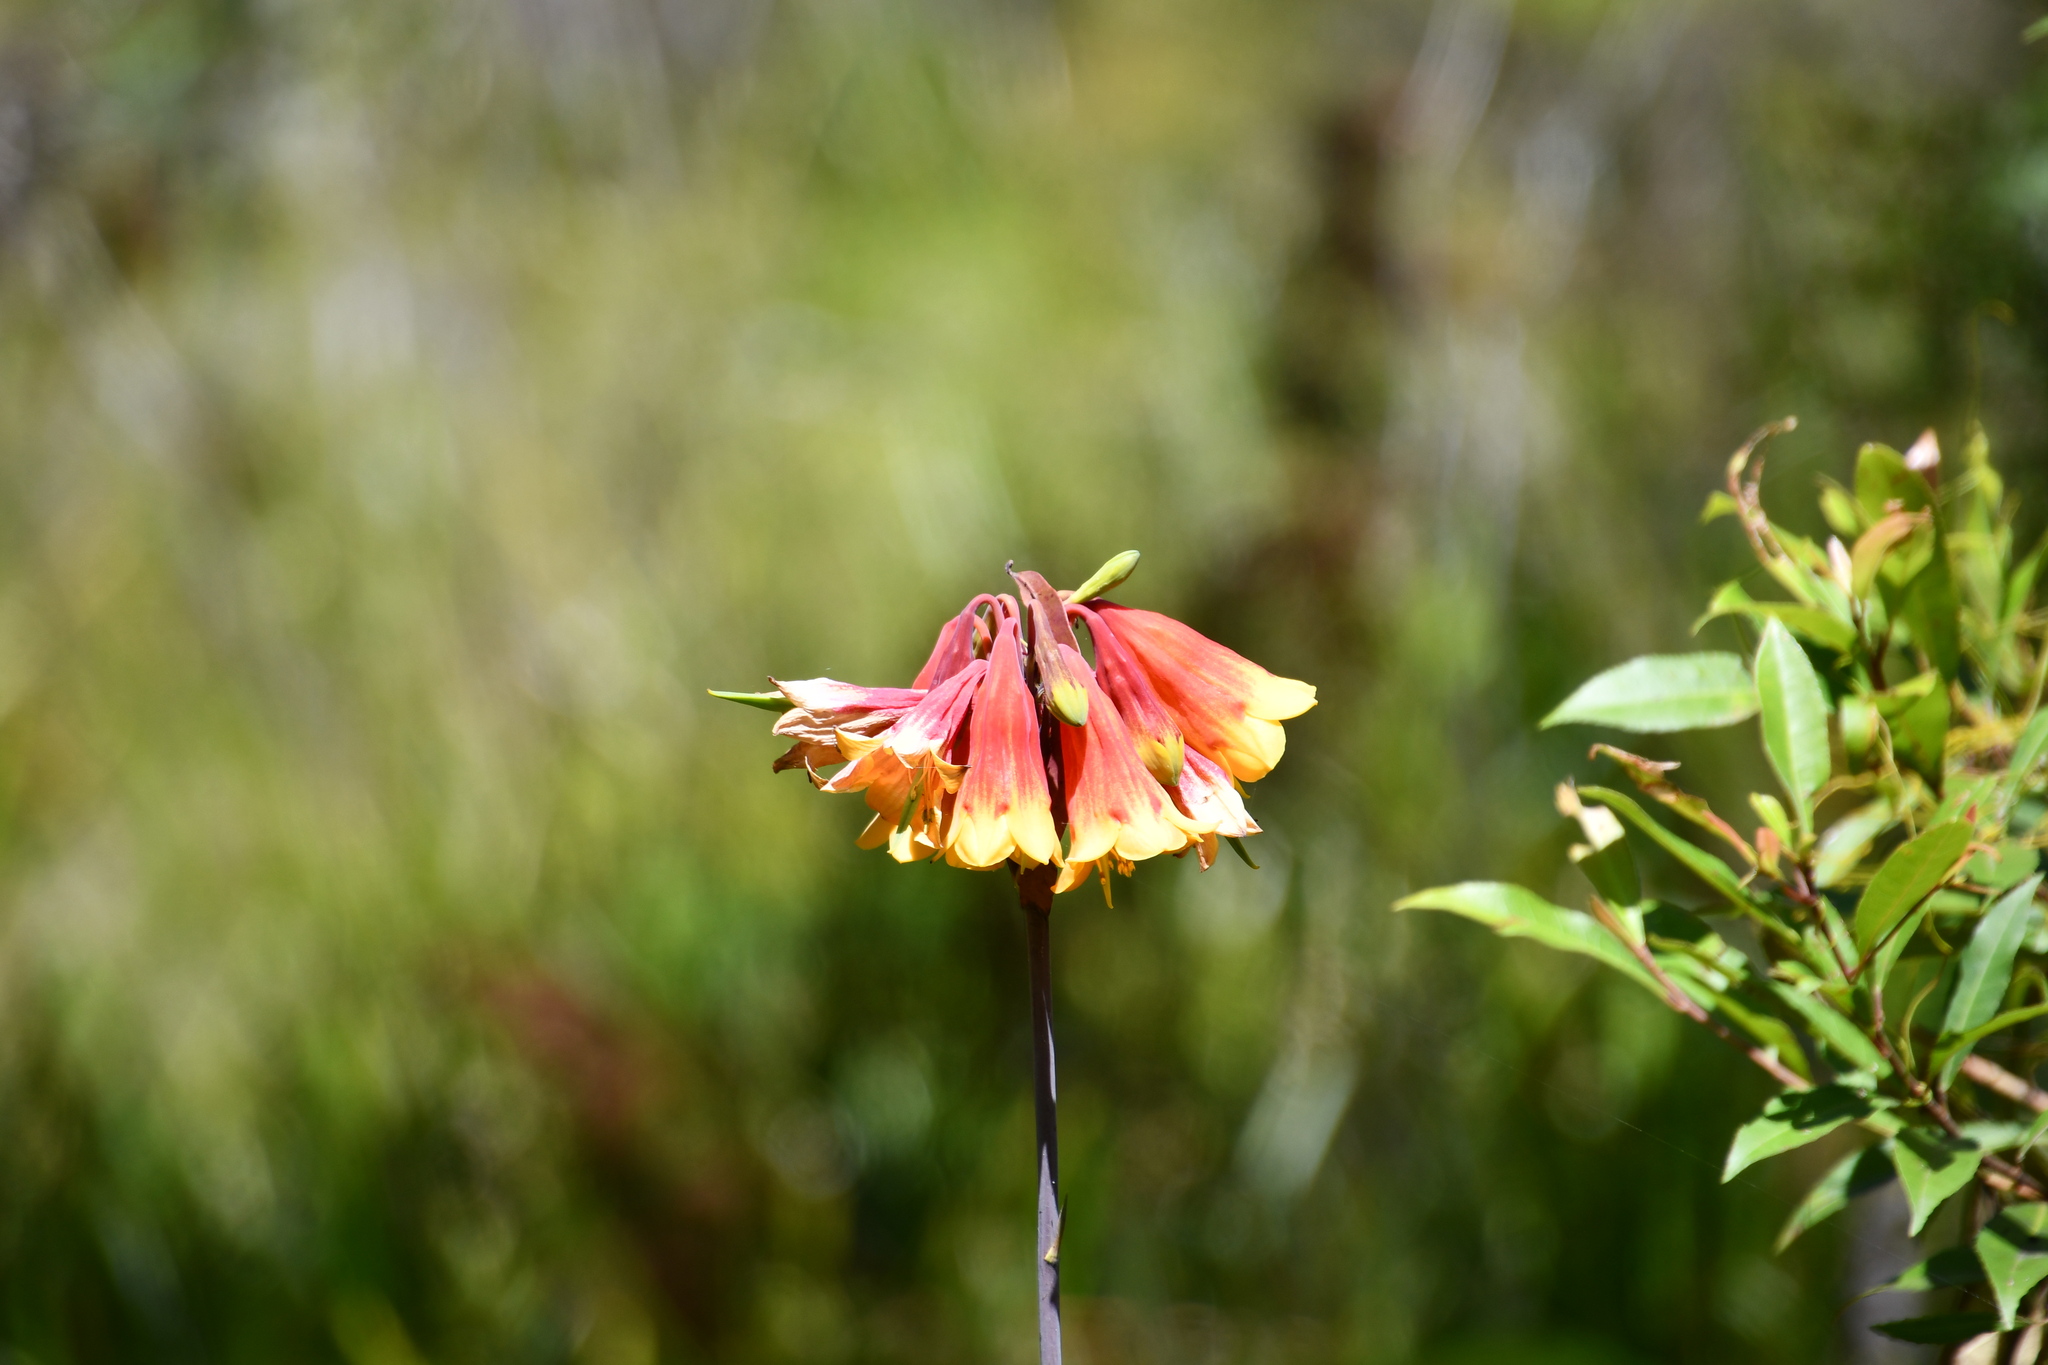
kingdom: Plantae
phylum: Tracheophyta
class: Liliopsida
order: Asparagales
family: Blandfordiaceae
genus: Blandfordia
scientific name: Blandfordia grandiflora
